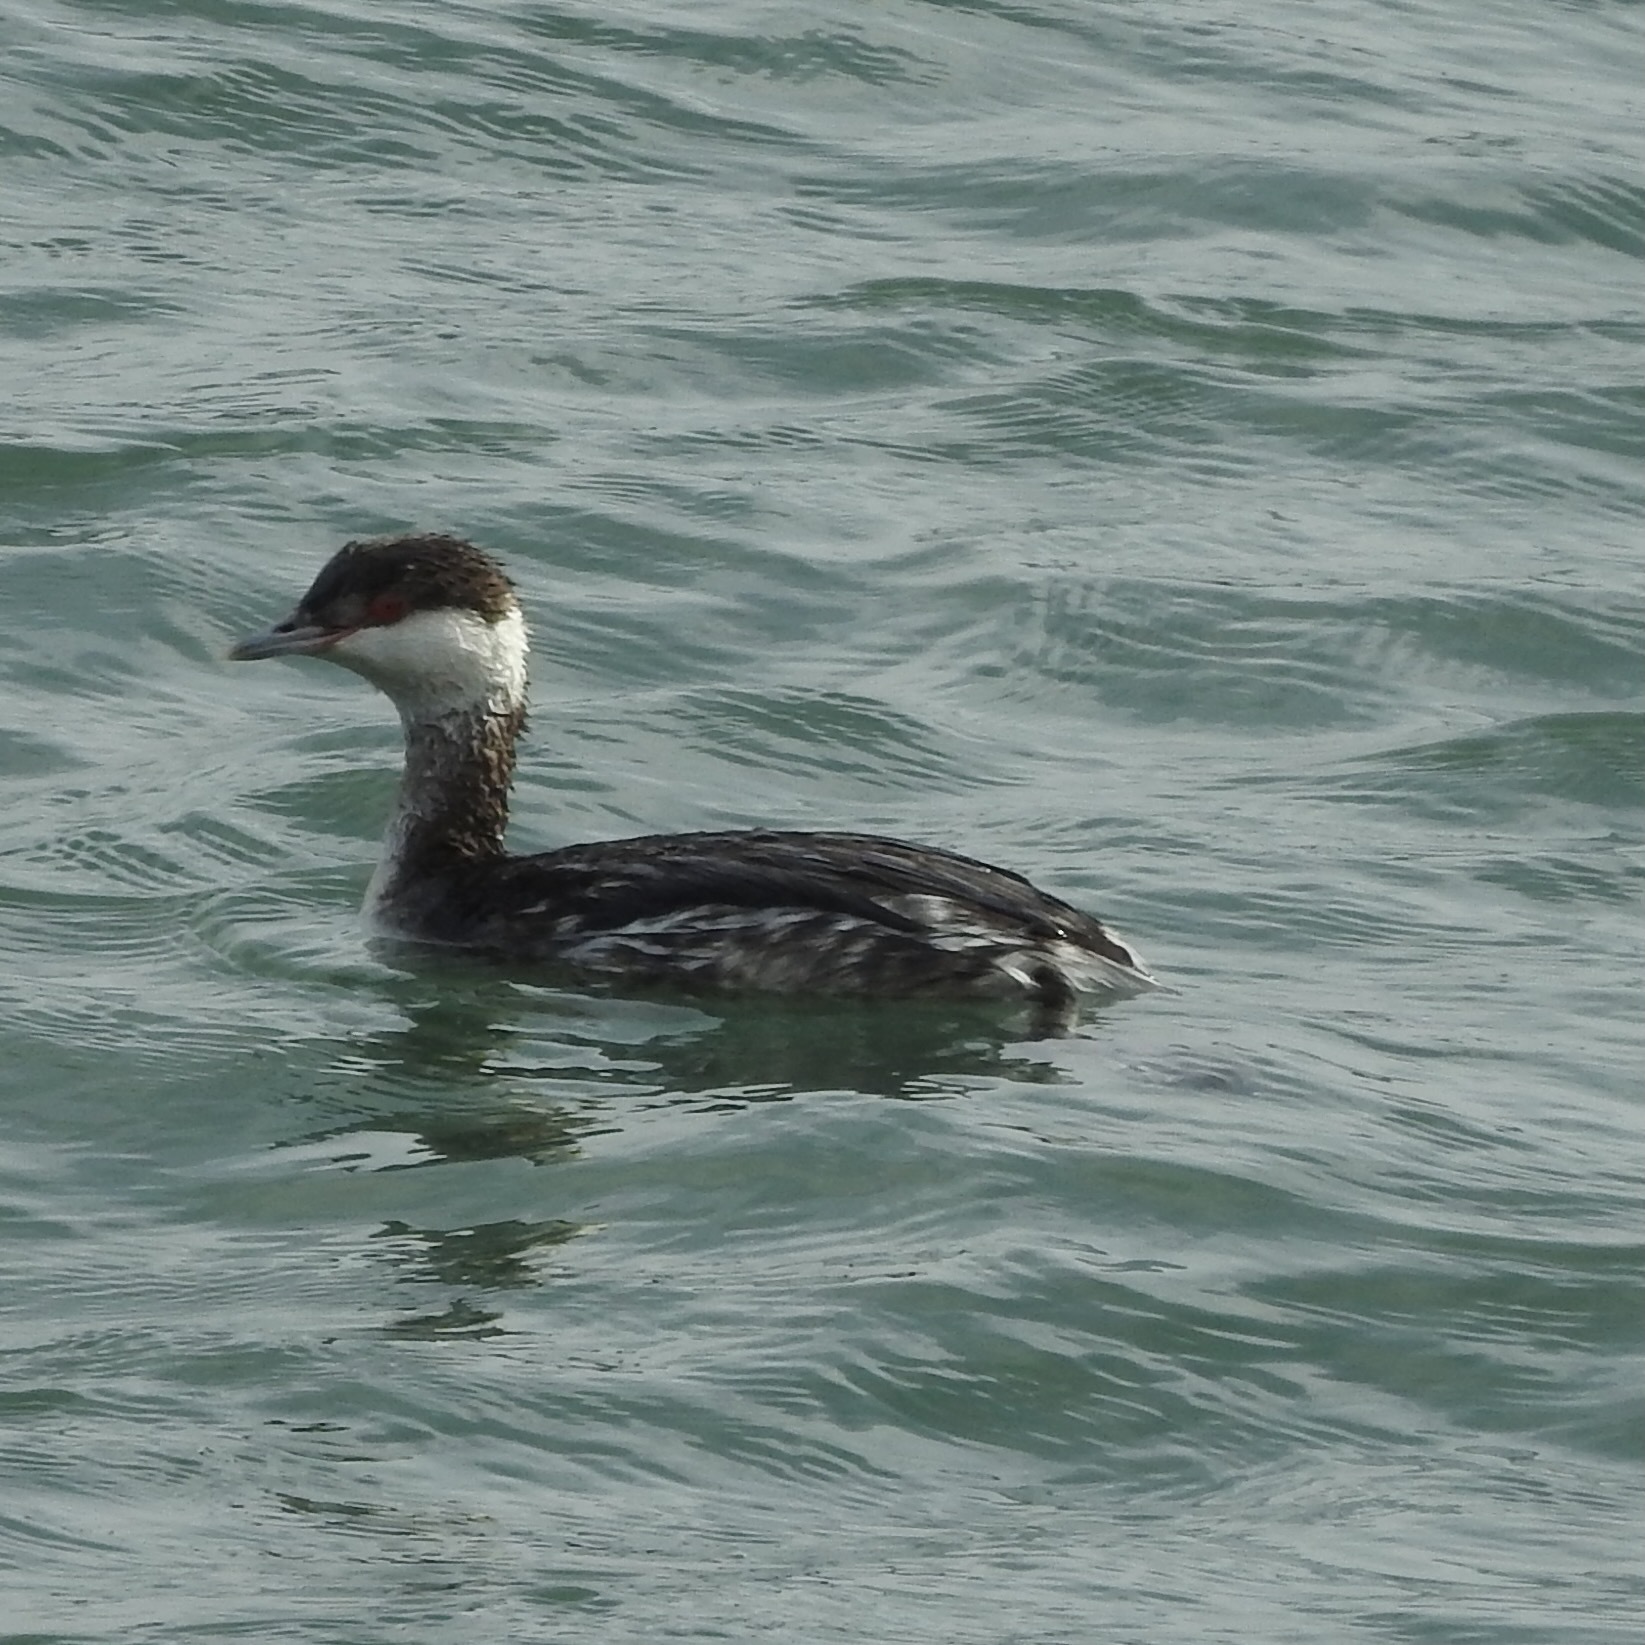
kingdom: Animalia
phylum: Chordata
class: Aves
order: Podicipediformes
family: Podicipedidae
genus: Podiceps
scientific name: Podiceps auritus
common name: Horned grebe
